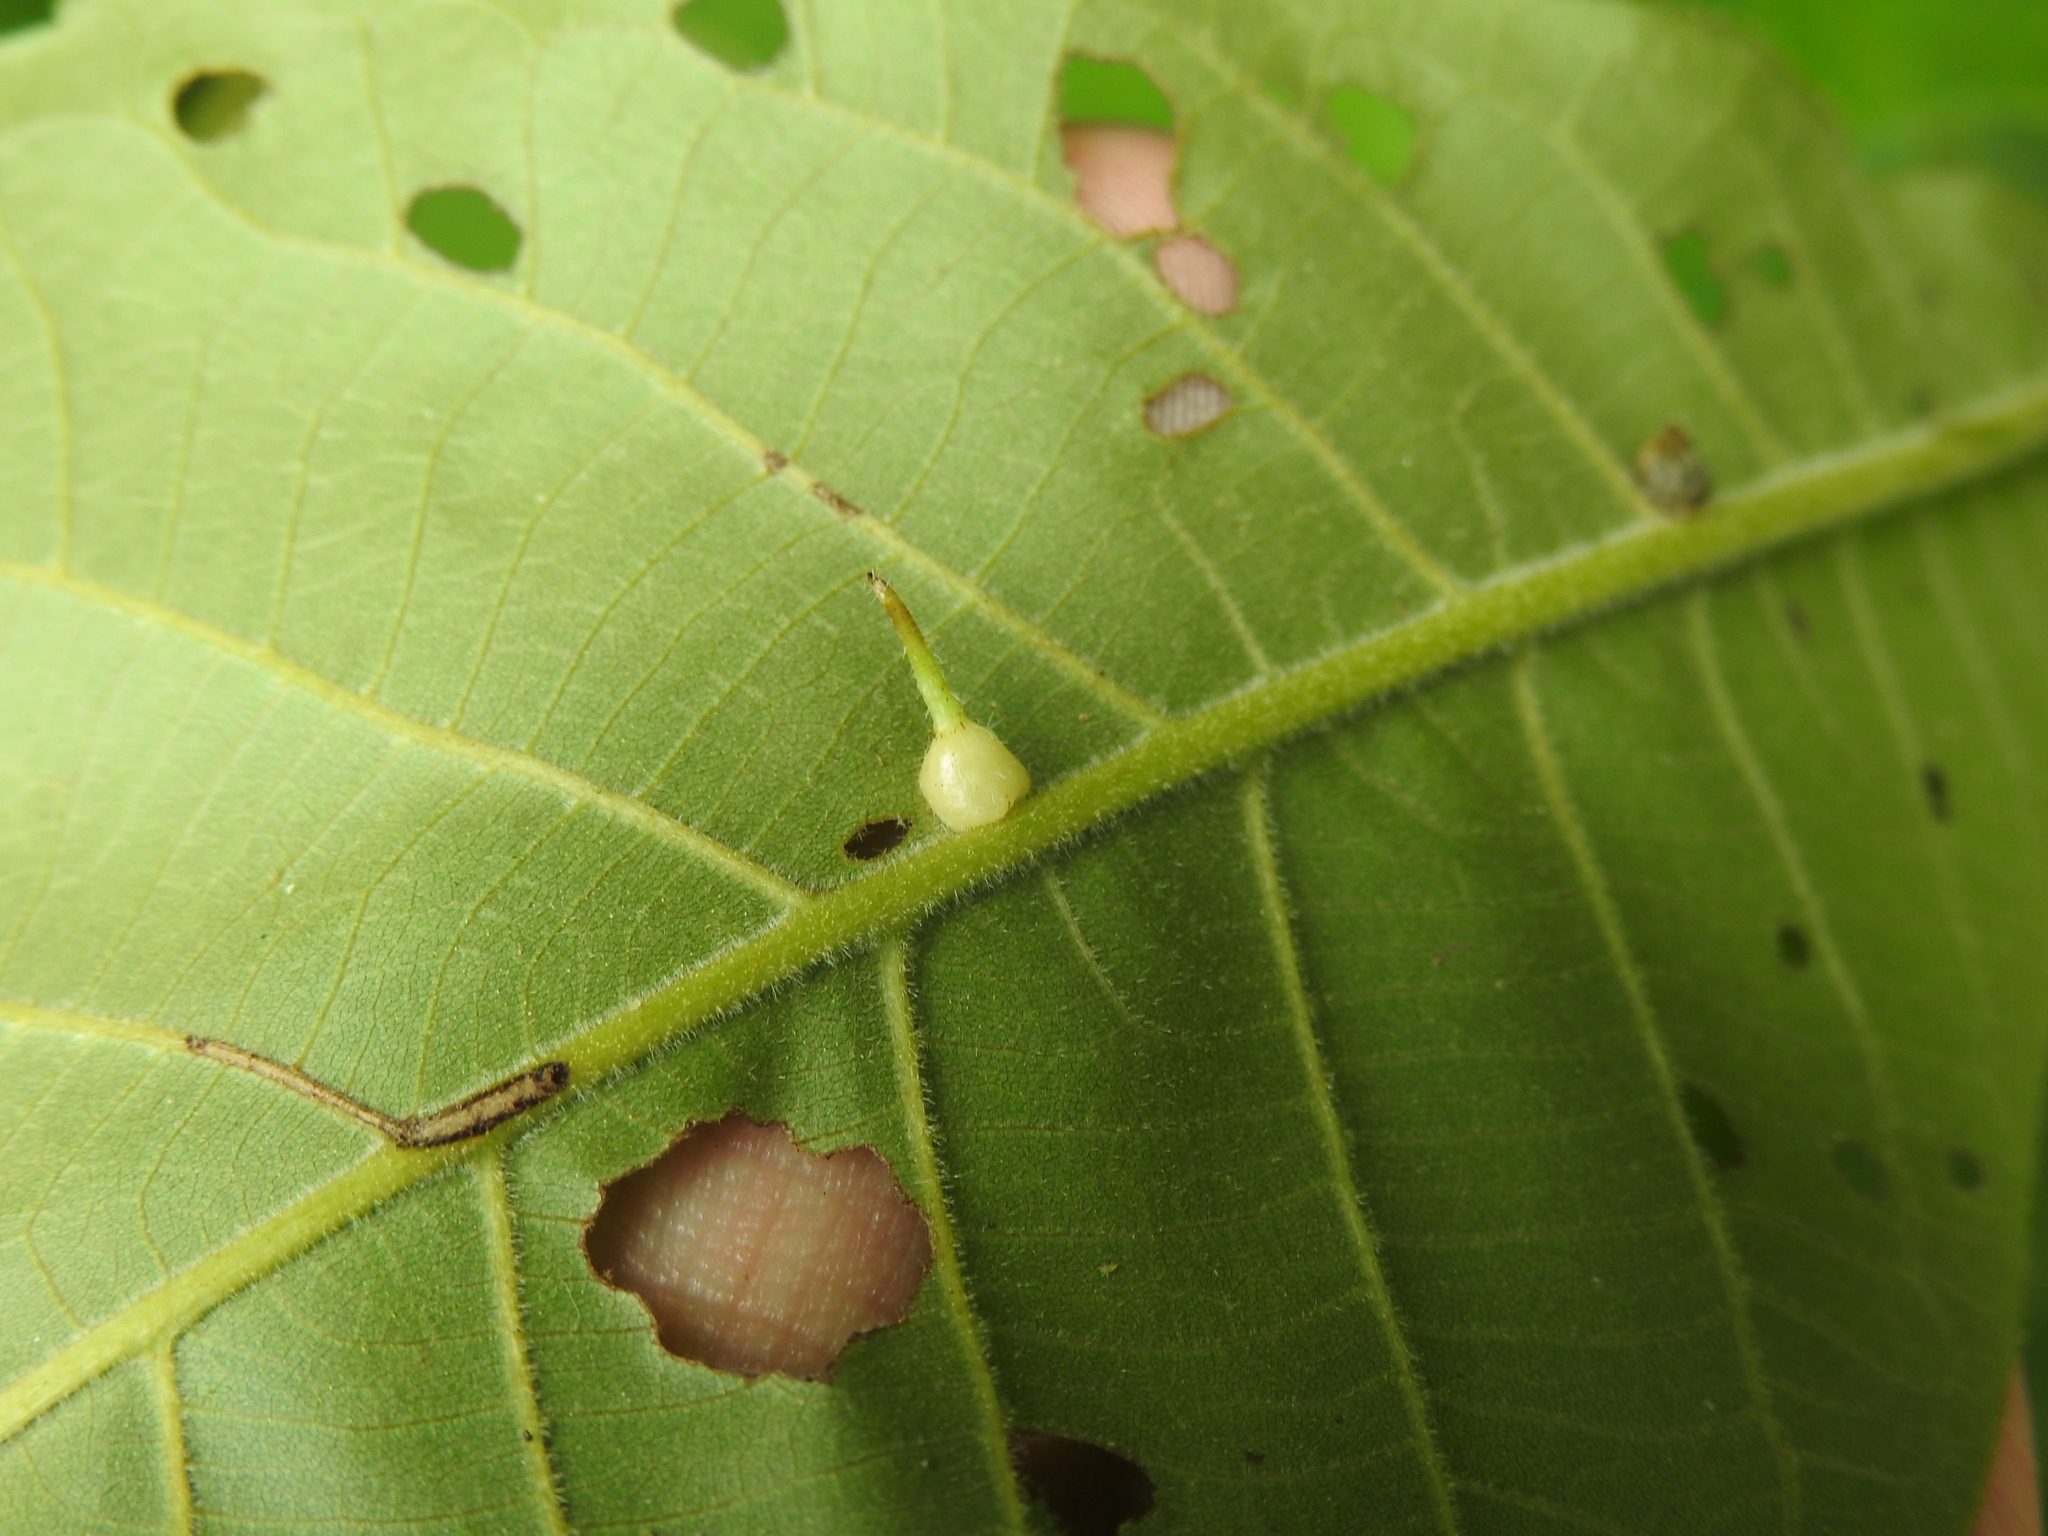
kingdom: Animalia
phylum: Arthropoda
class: Insecta
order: Diptera
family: Cecidomyiidae
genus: Caryomyia
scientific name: Caryomyia inclinata
